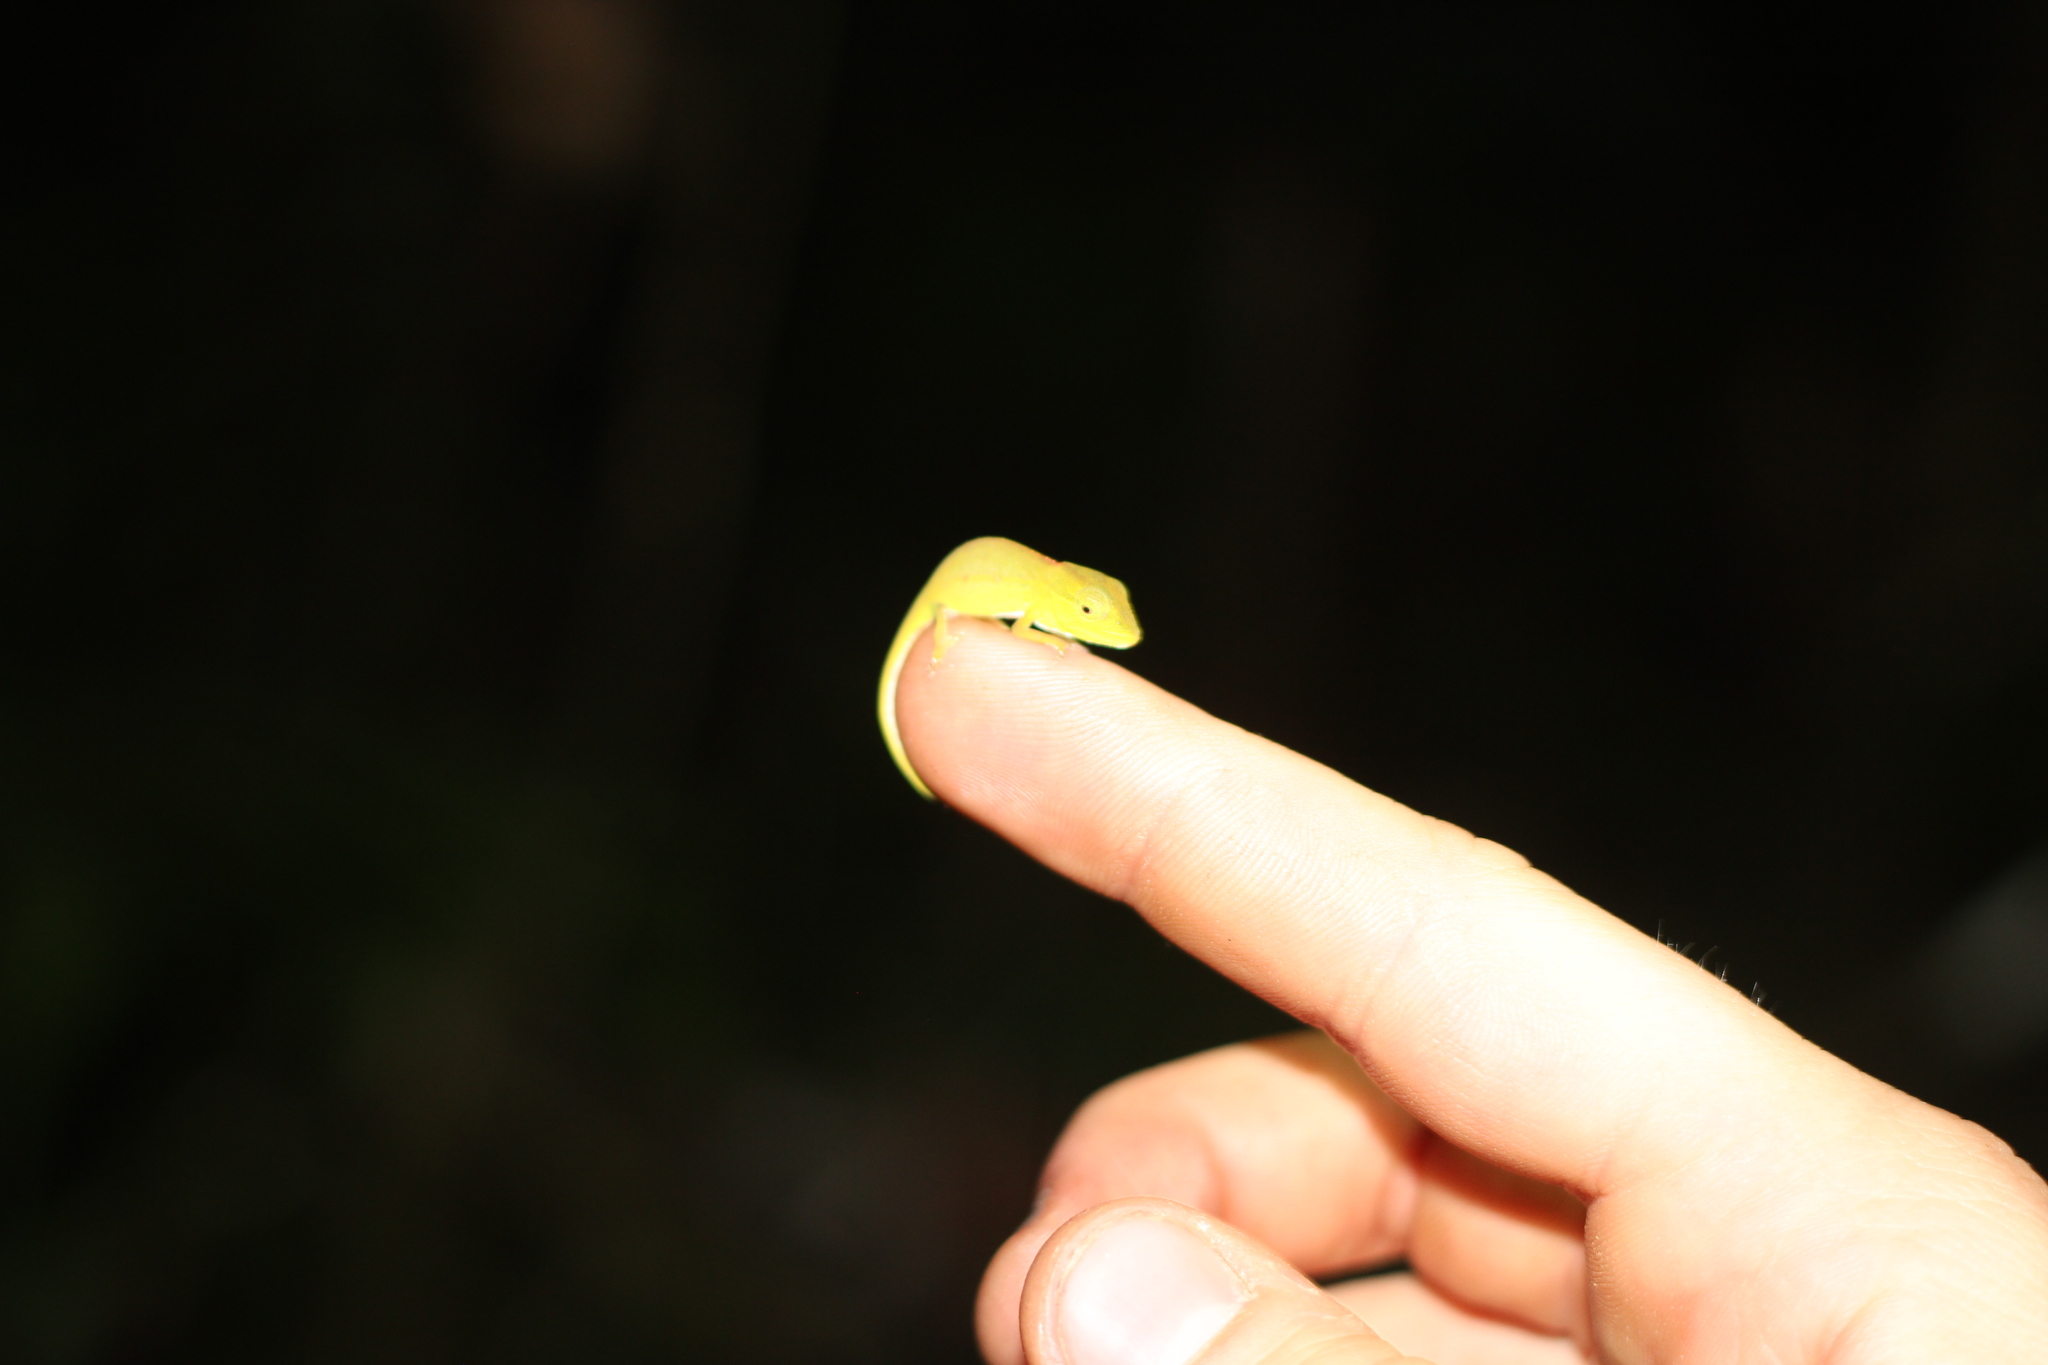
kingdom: Animalia
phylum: Chordata
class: Squamata
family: Chamaeleonidae
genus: Calumma
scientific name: Calumma gastrotaenia
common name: Short-nosed chameleon
